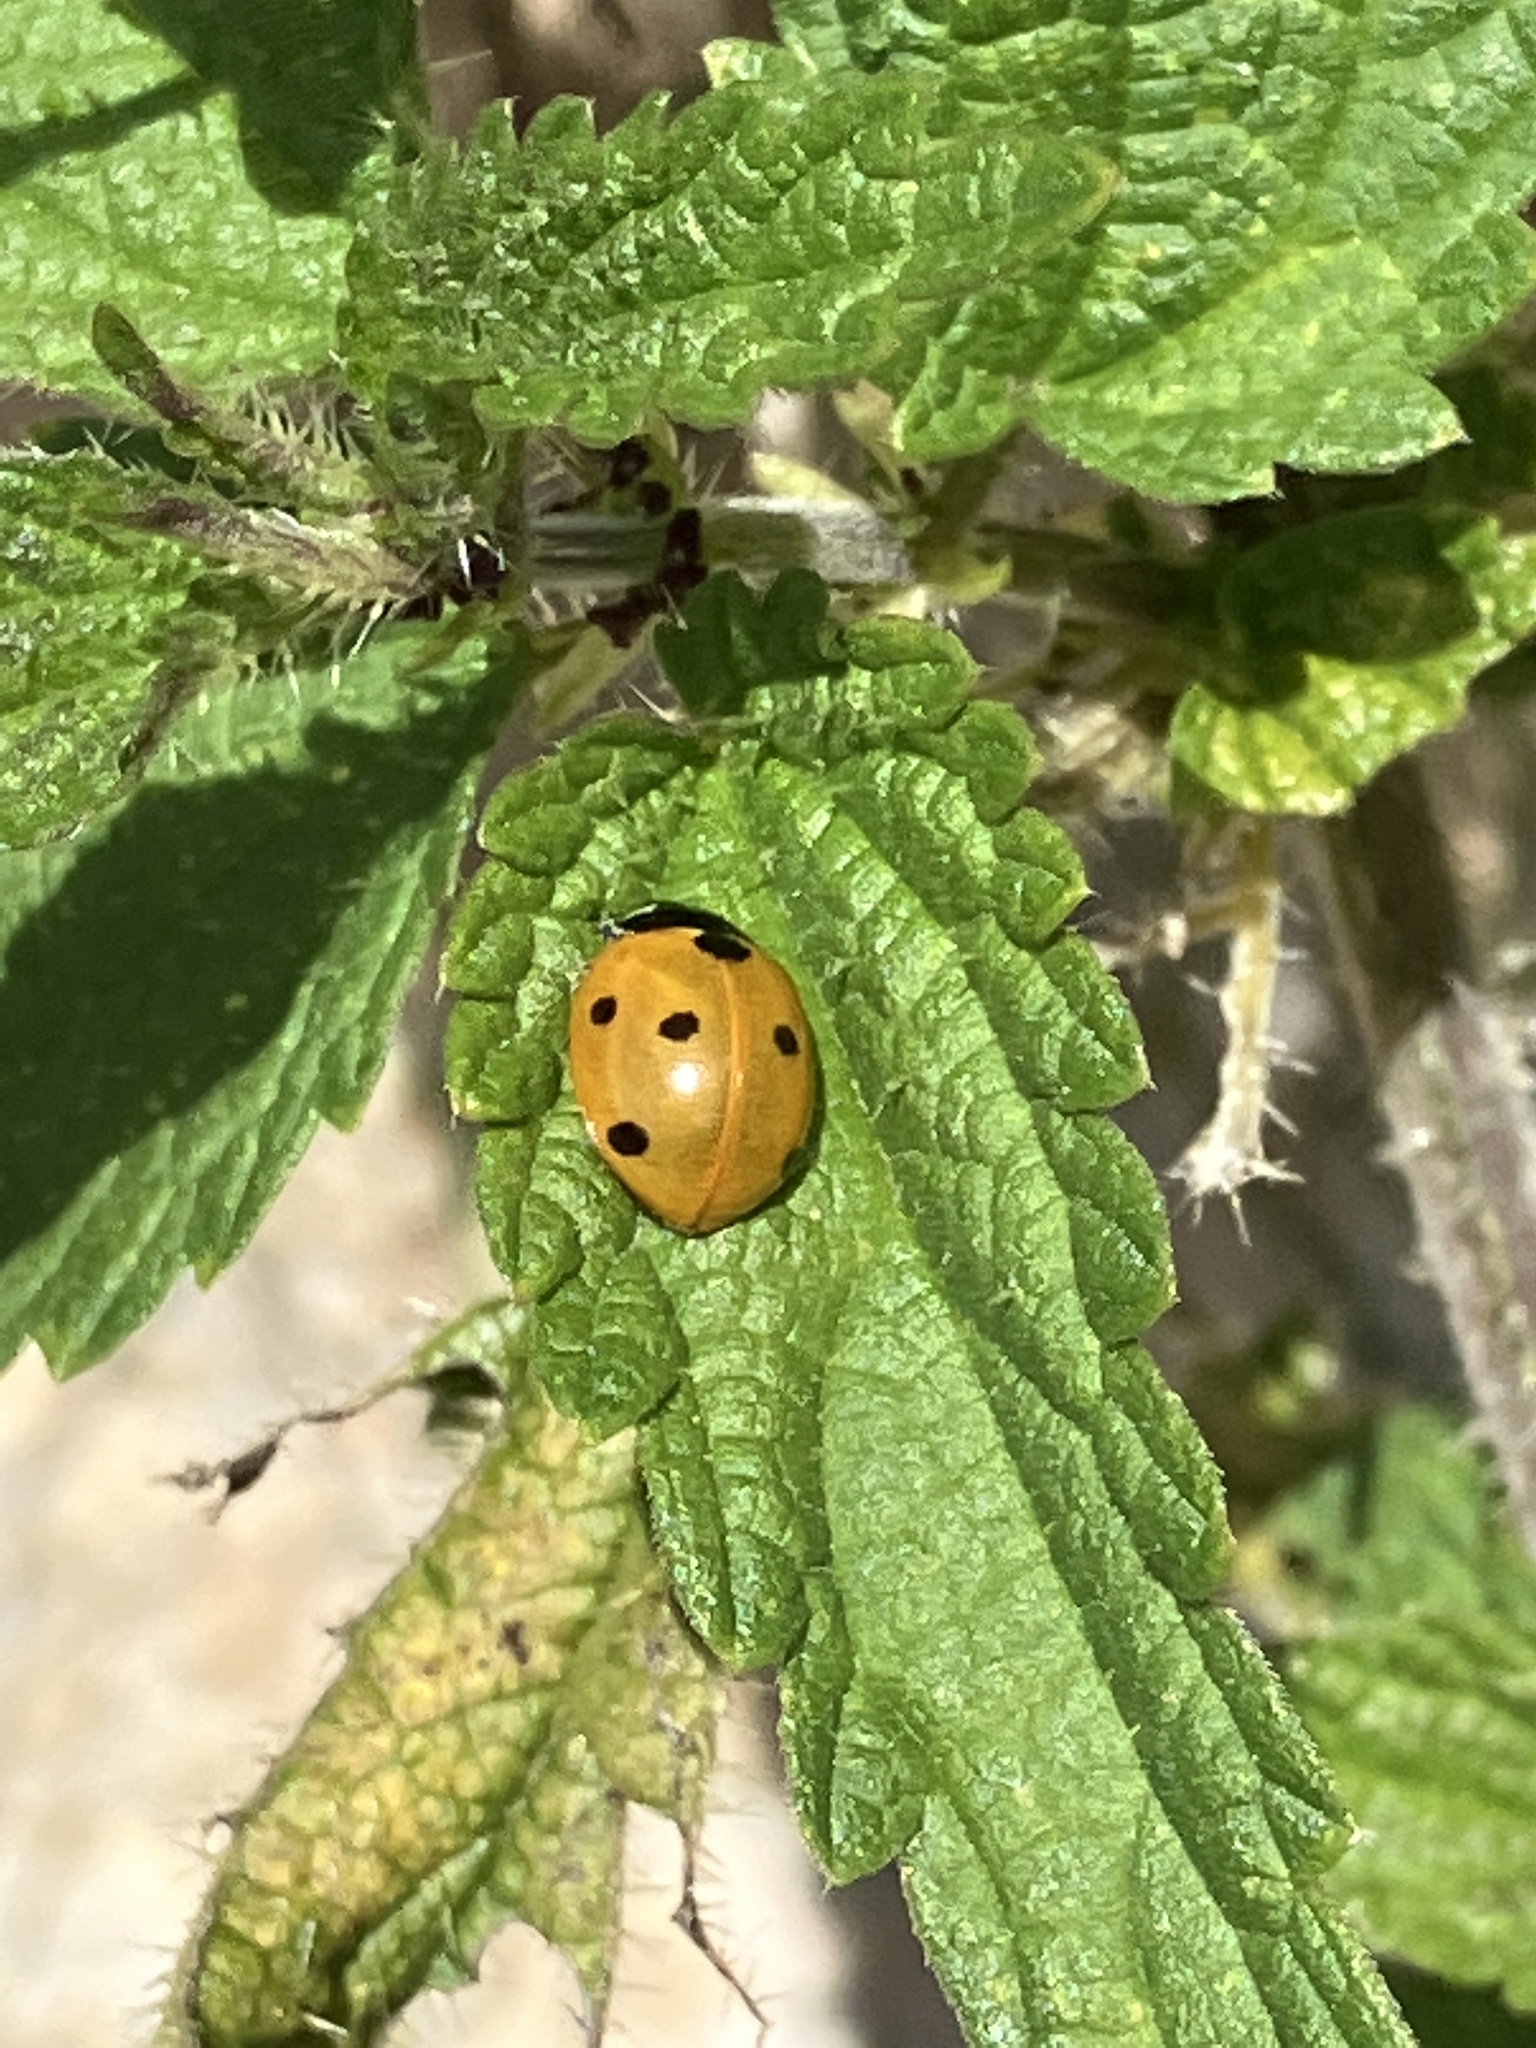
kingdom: Animalia
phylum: Arthropoda
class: Insecta
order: Coleoptera
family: Coccinellidae
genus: Coccinella
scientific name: Coccinella septempunctata
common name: Sevenspotted lady beetle
